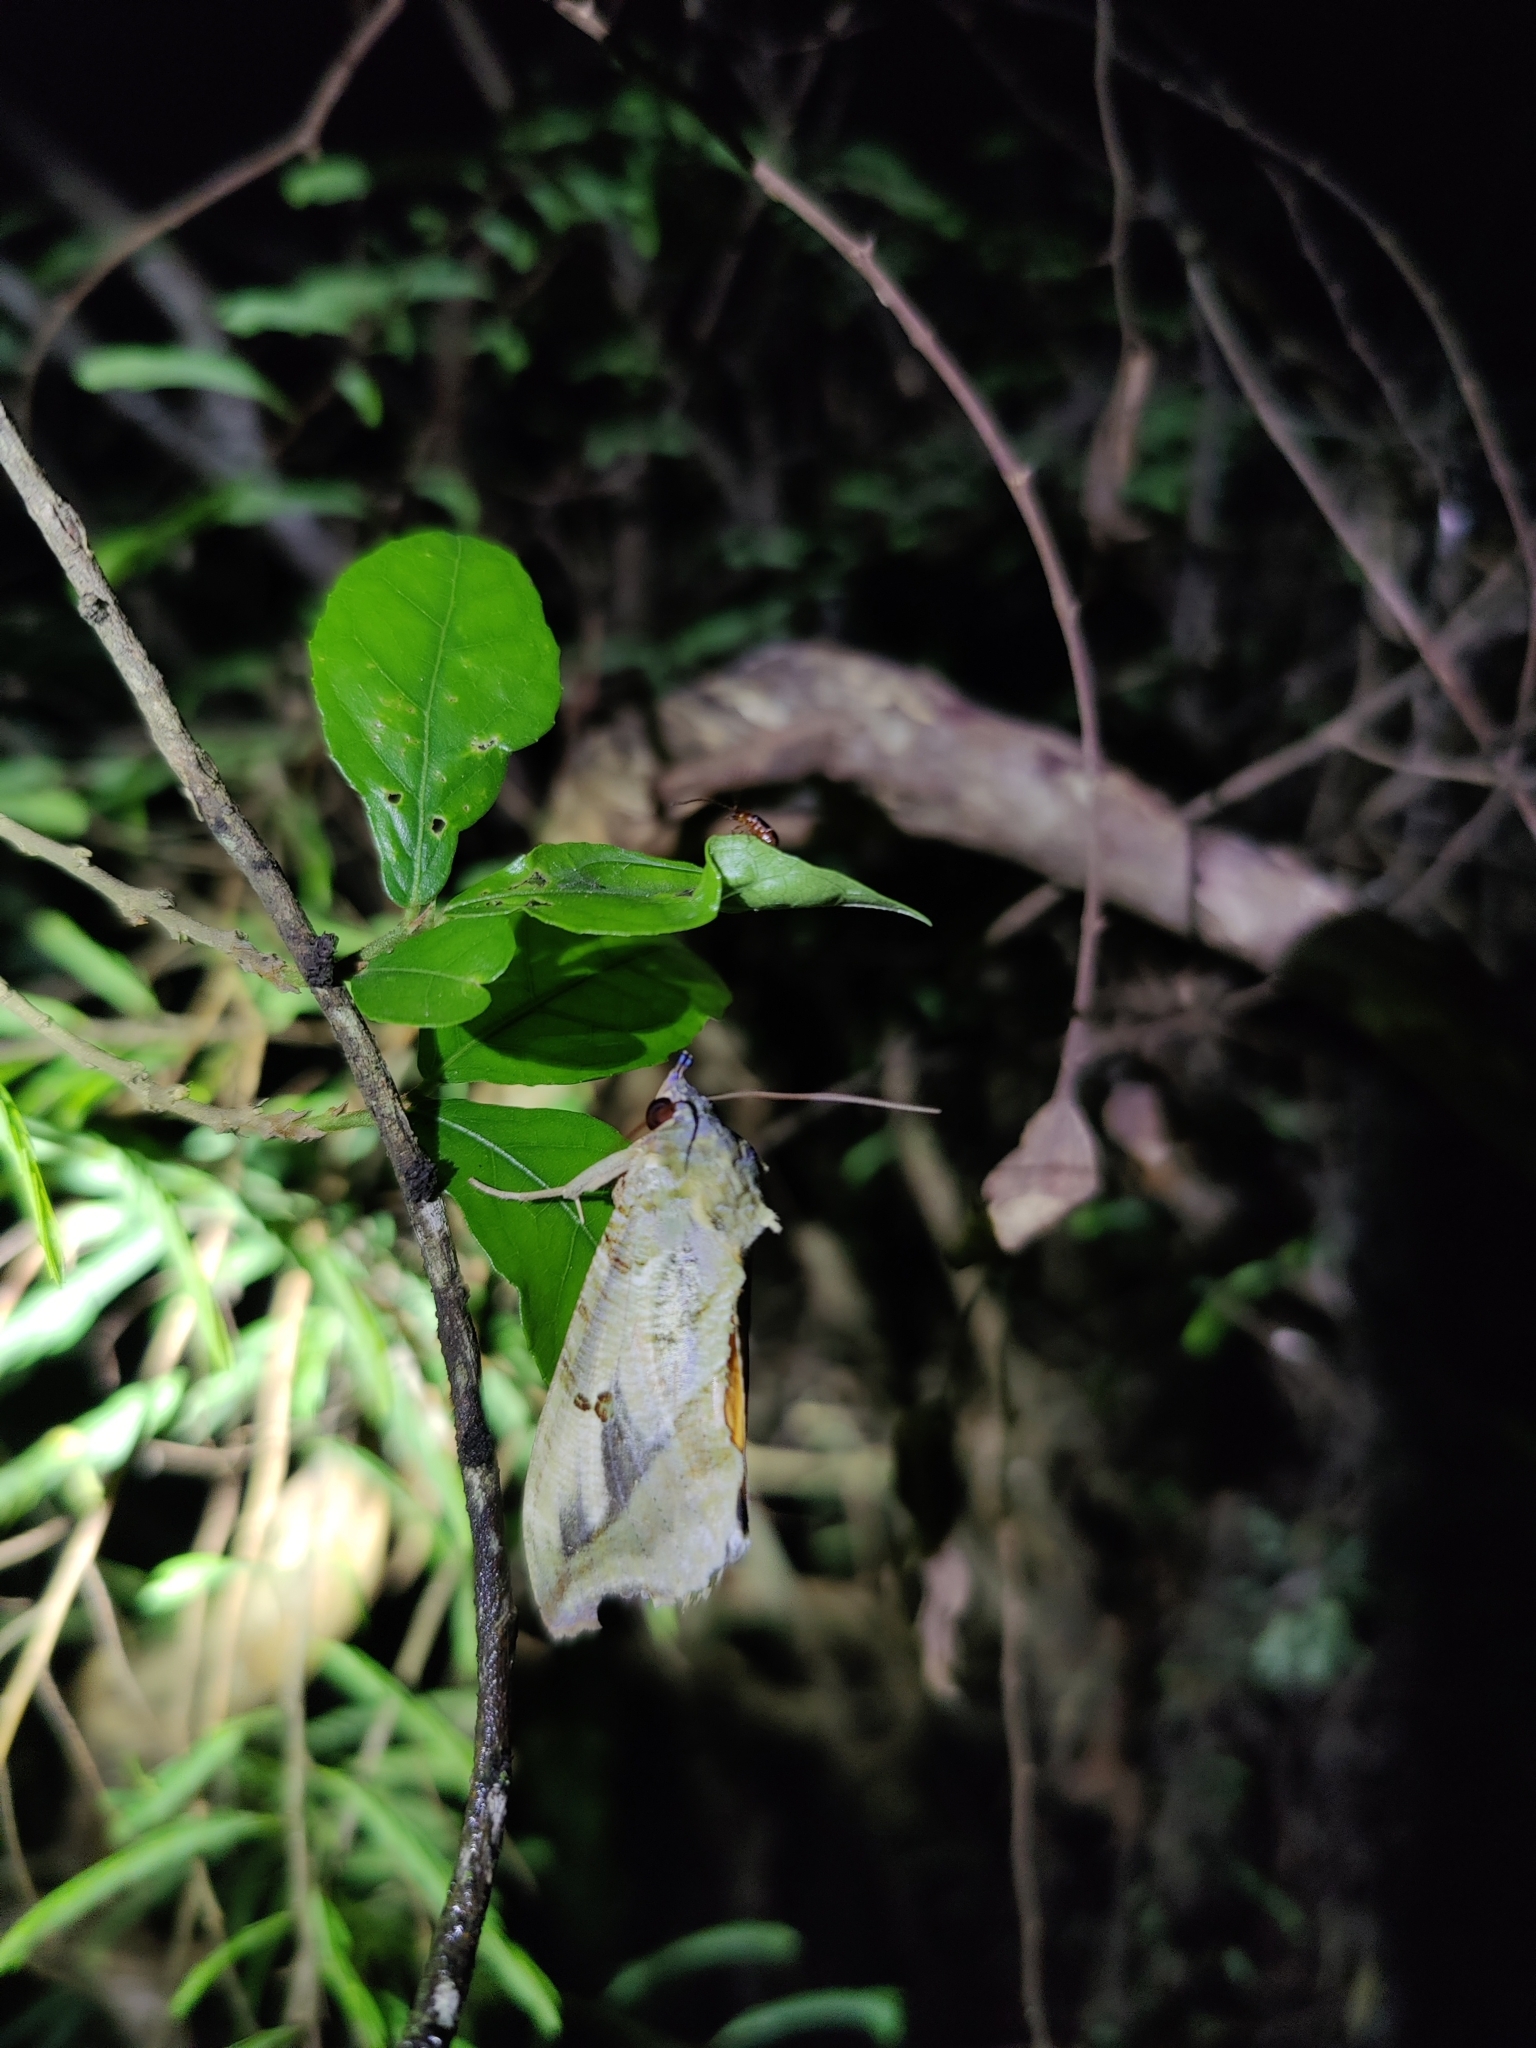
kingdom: Animalia
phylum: Arthropoda
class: Insecta
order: Lepidoptera
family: Erebidae
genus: Eudocima
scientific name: Eudocima materna
